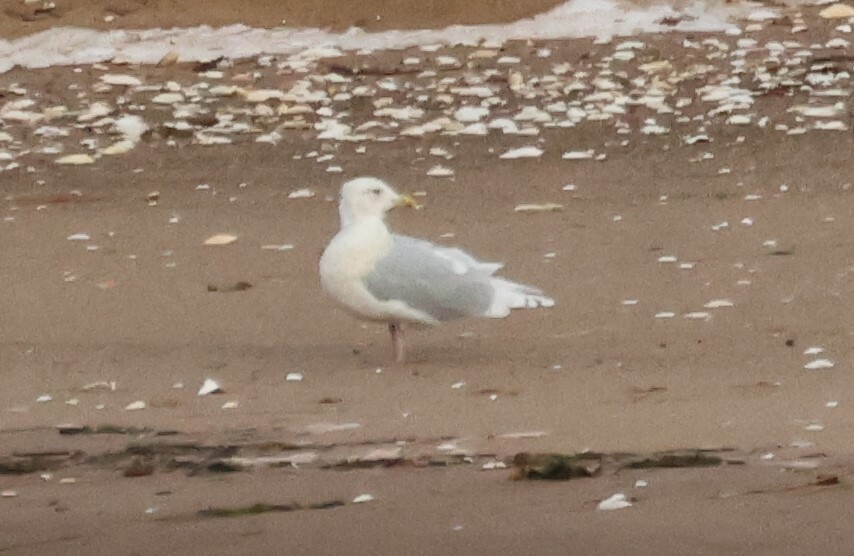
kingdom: Animalia
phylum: Chordata
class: Aves
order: Charadriiformes
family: Laridae
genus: Larus
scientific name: Larus glaucoides
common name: Iceland gull
